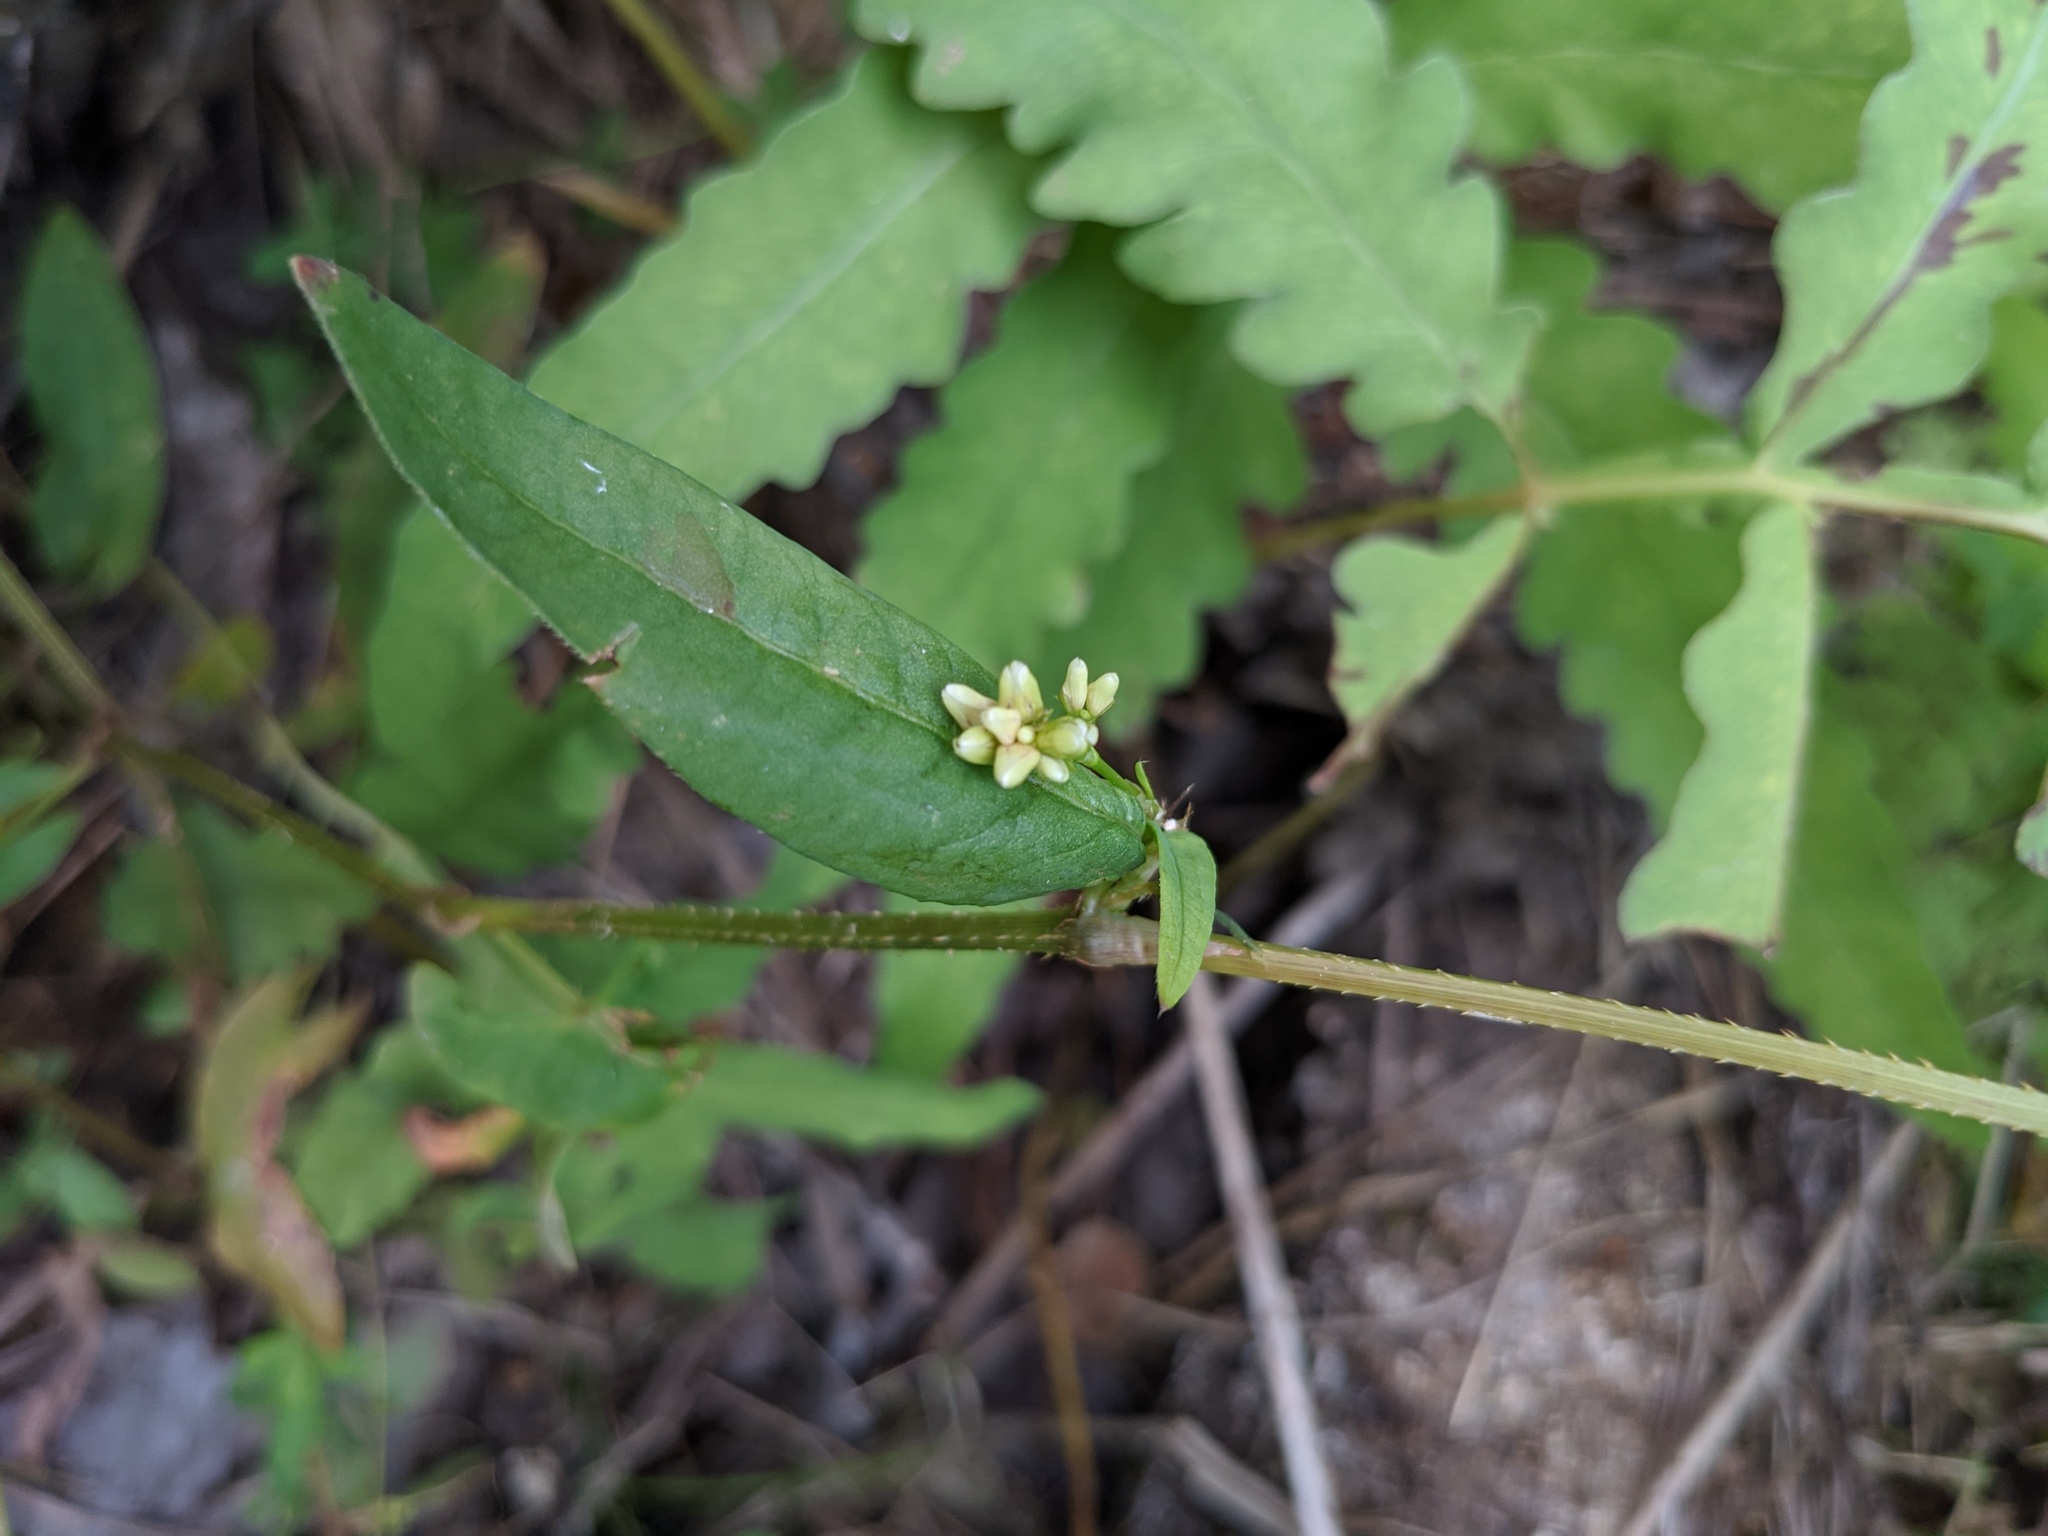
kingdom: Plantae
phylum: Tracheophyta
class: Magnoliopsida
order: Caryophyllales
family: Polygonaceae
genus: Persicaria
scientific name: Persicaria sagittata
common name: American tearthumb
